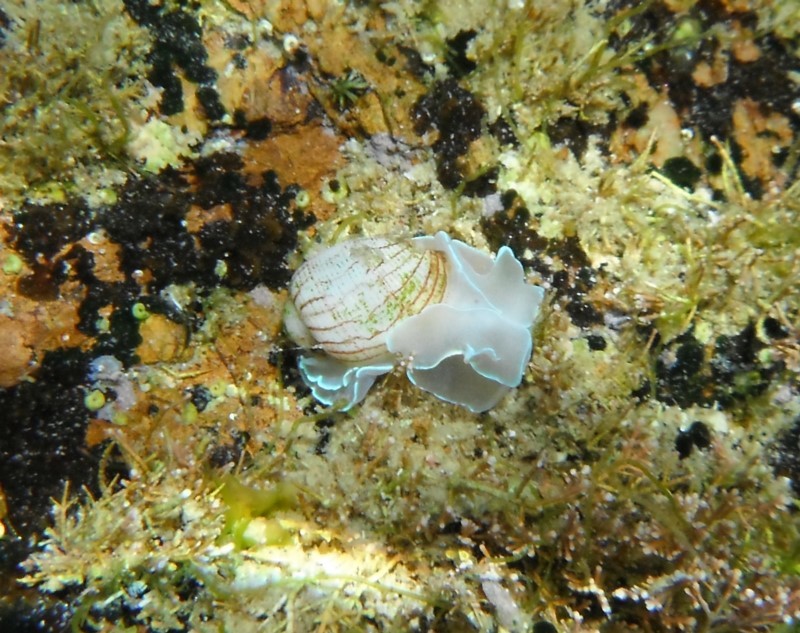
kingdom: Animalia
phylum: Mollusca
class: Gastropoda
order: Cephalaspidea
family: Aplustridae
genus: Bullina
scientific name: Bullina lineata
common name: Lined bubble snail
